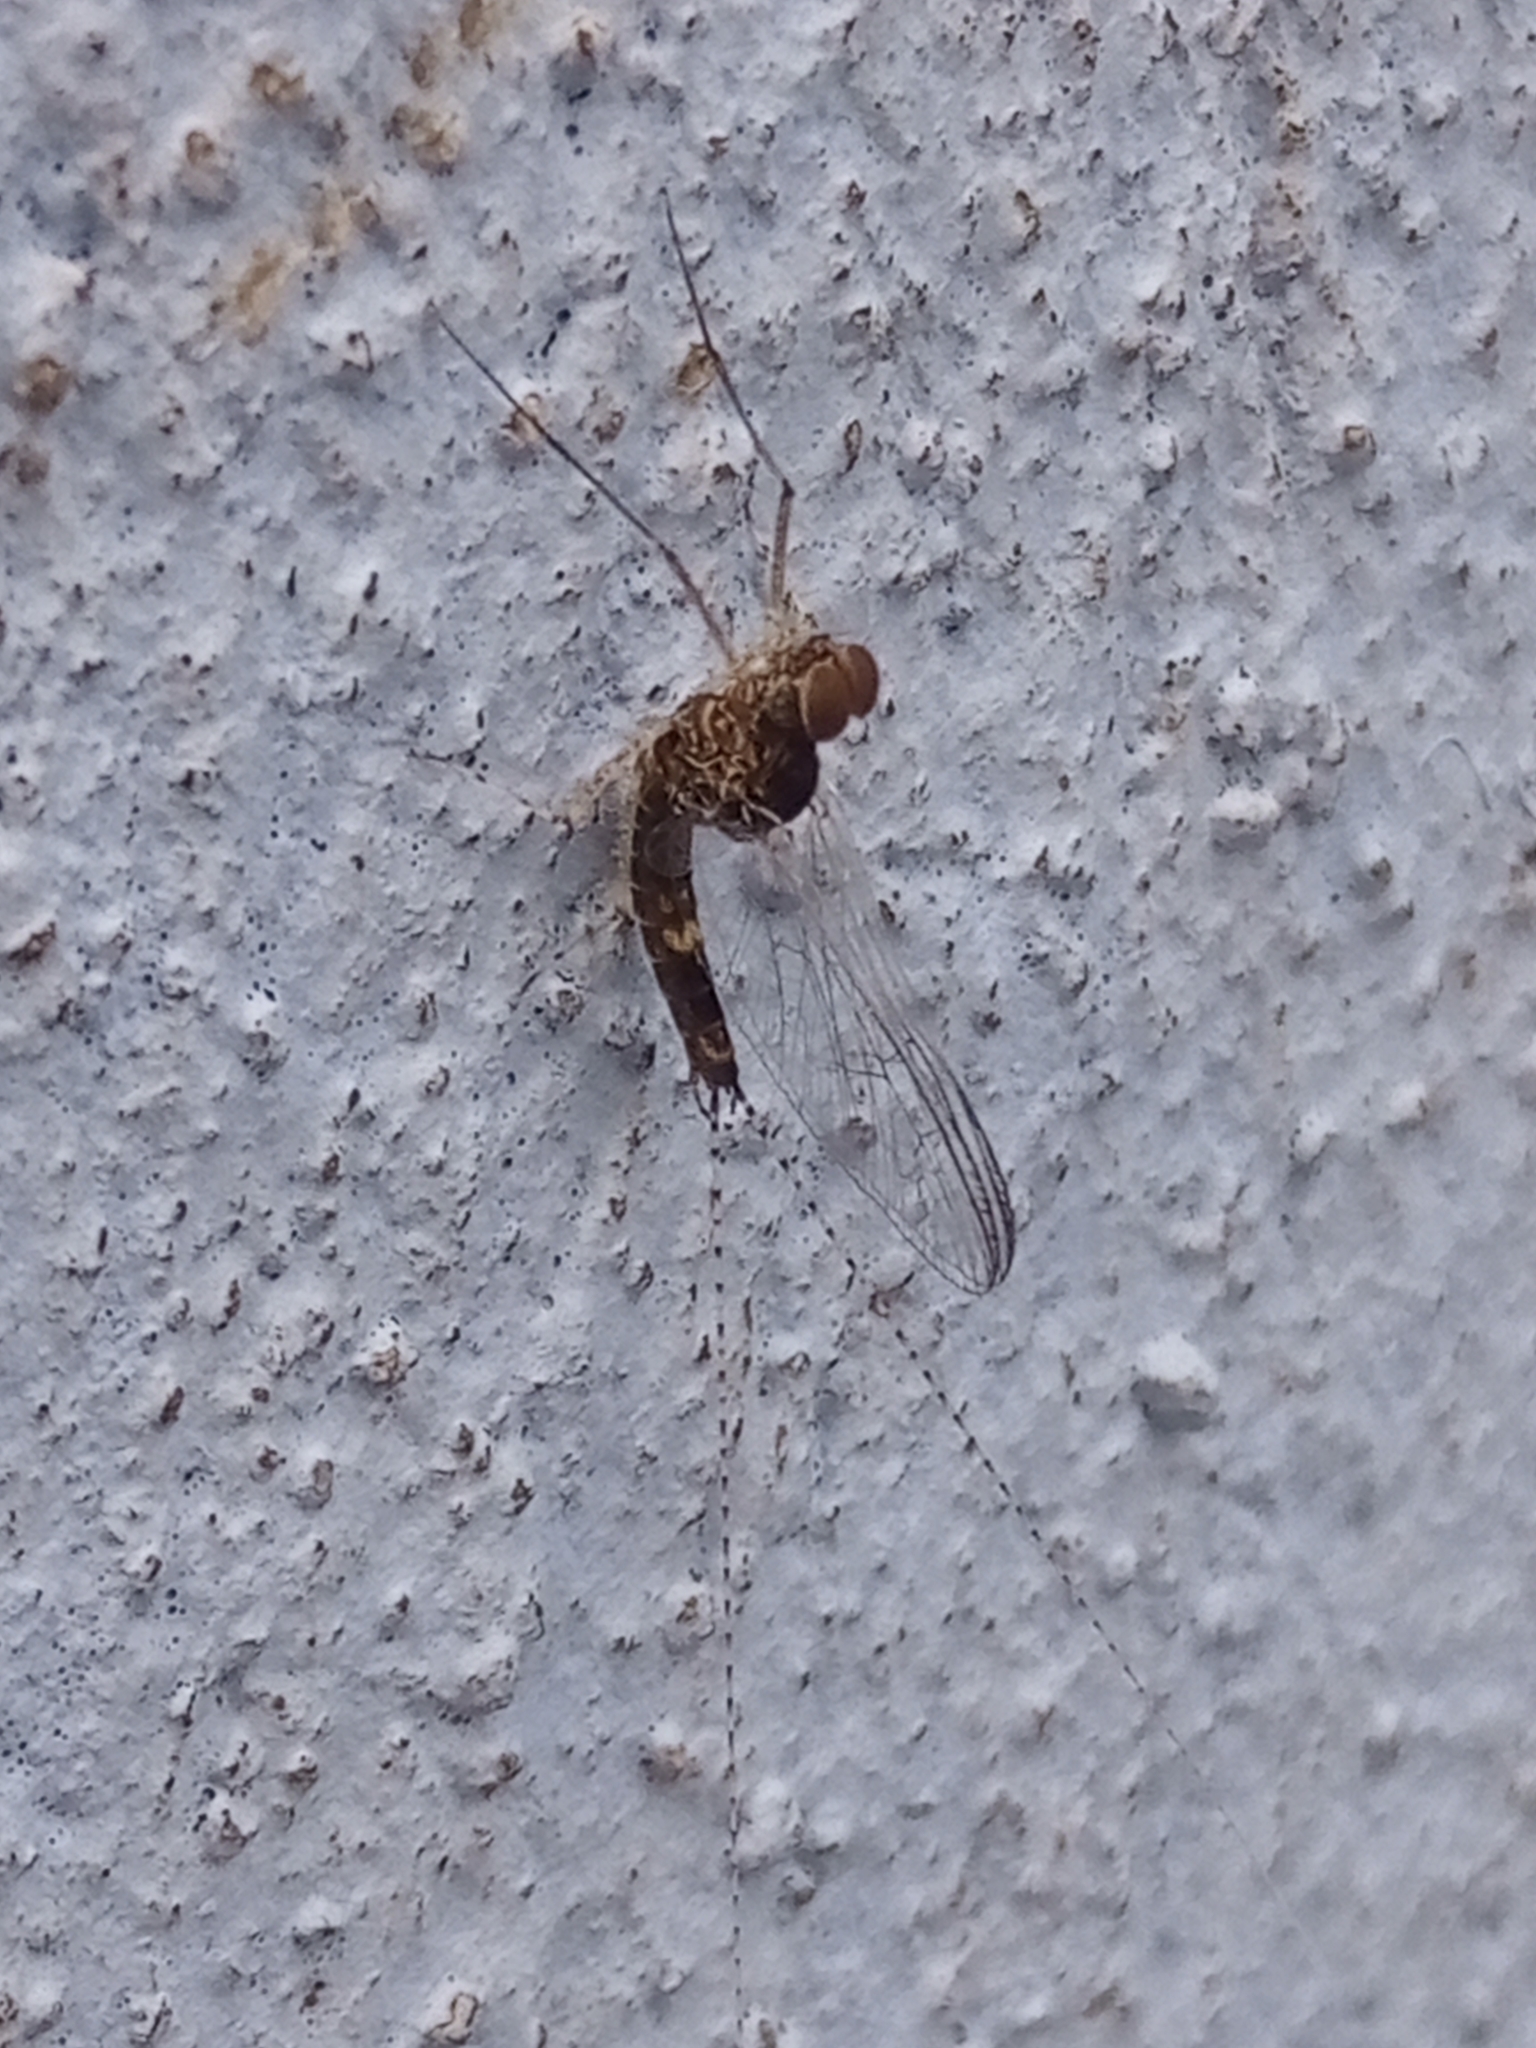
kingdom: Animalia
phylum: Arthropoda
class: Insecta
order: Ephemeroptera
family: Baetidae
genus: Callibaetis
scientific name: Callibaetis pictus
